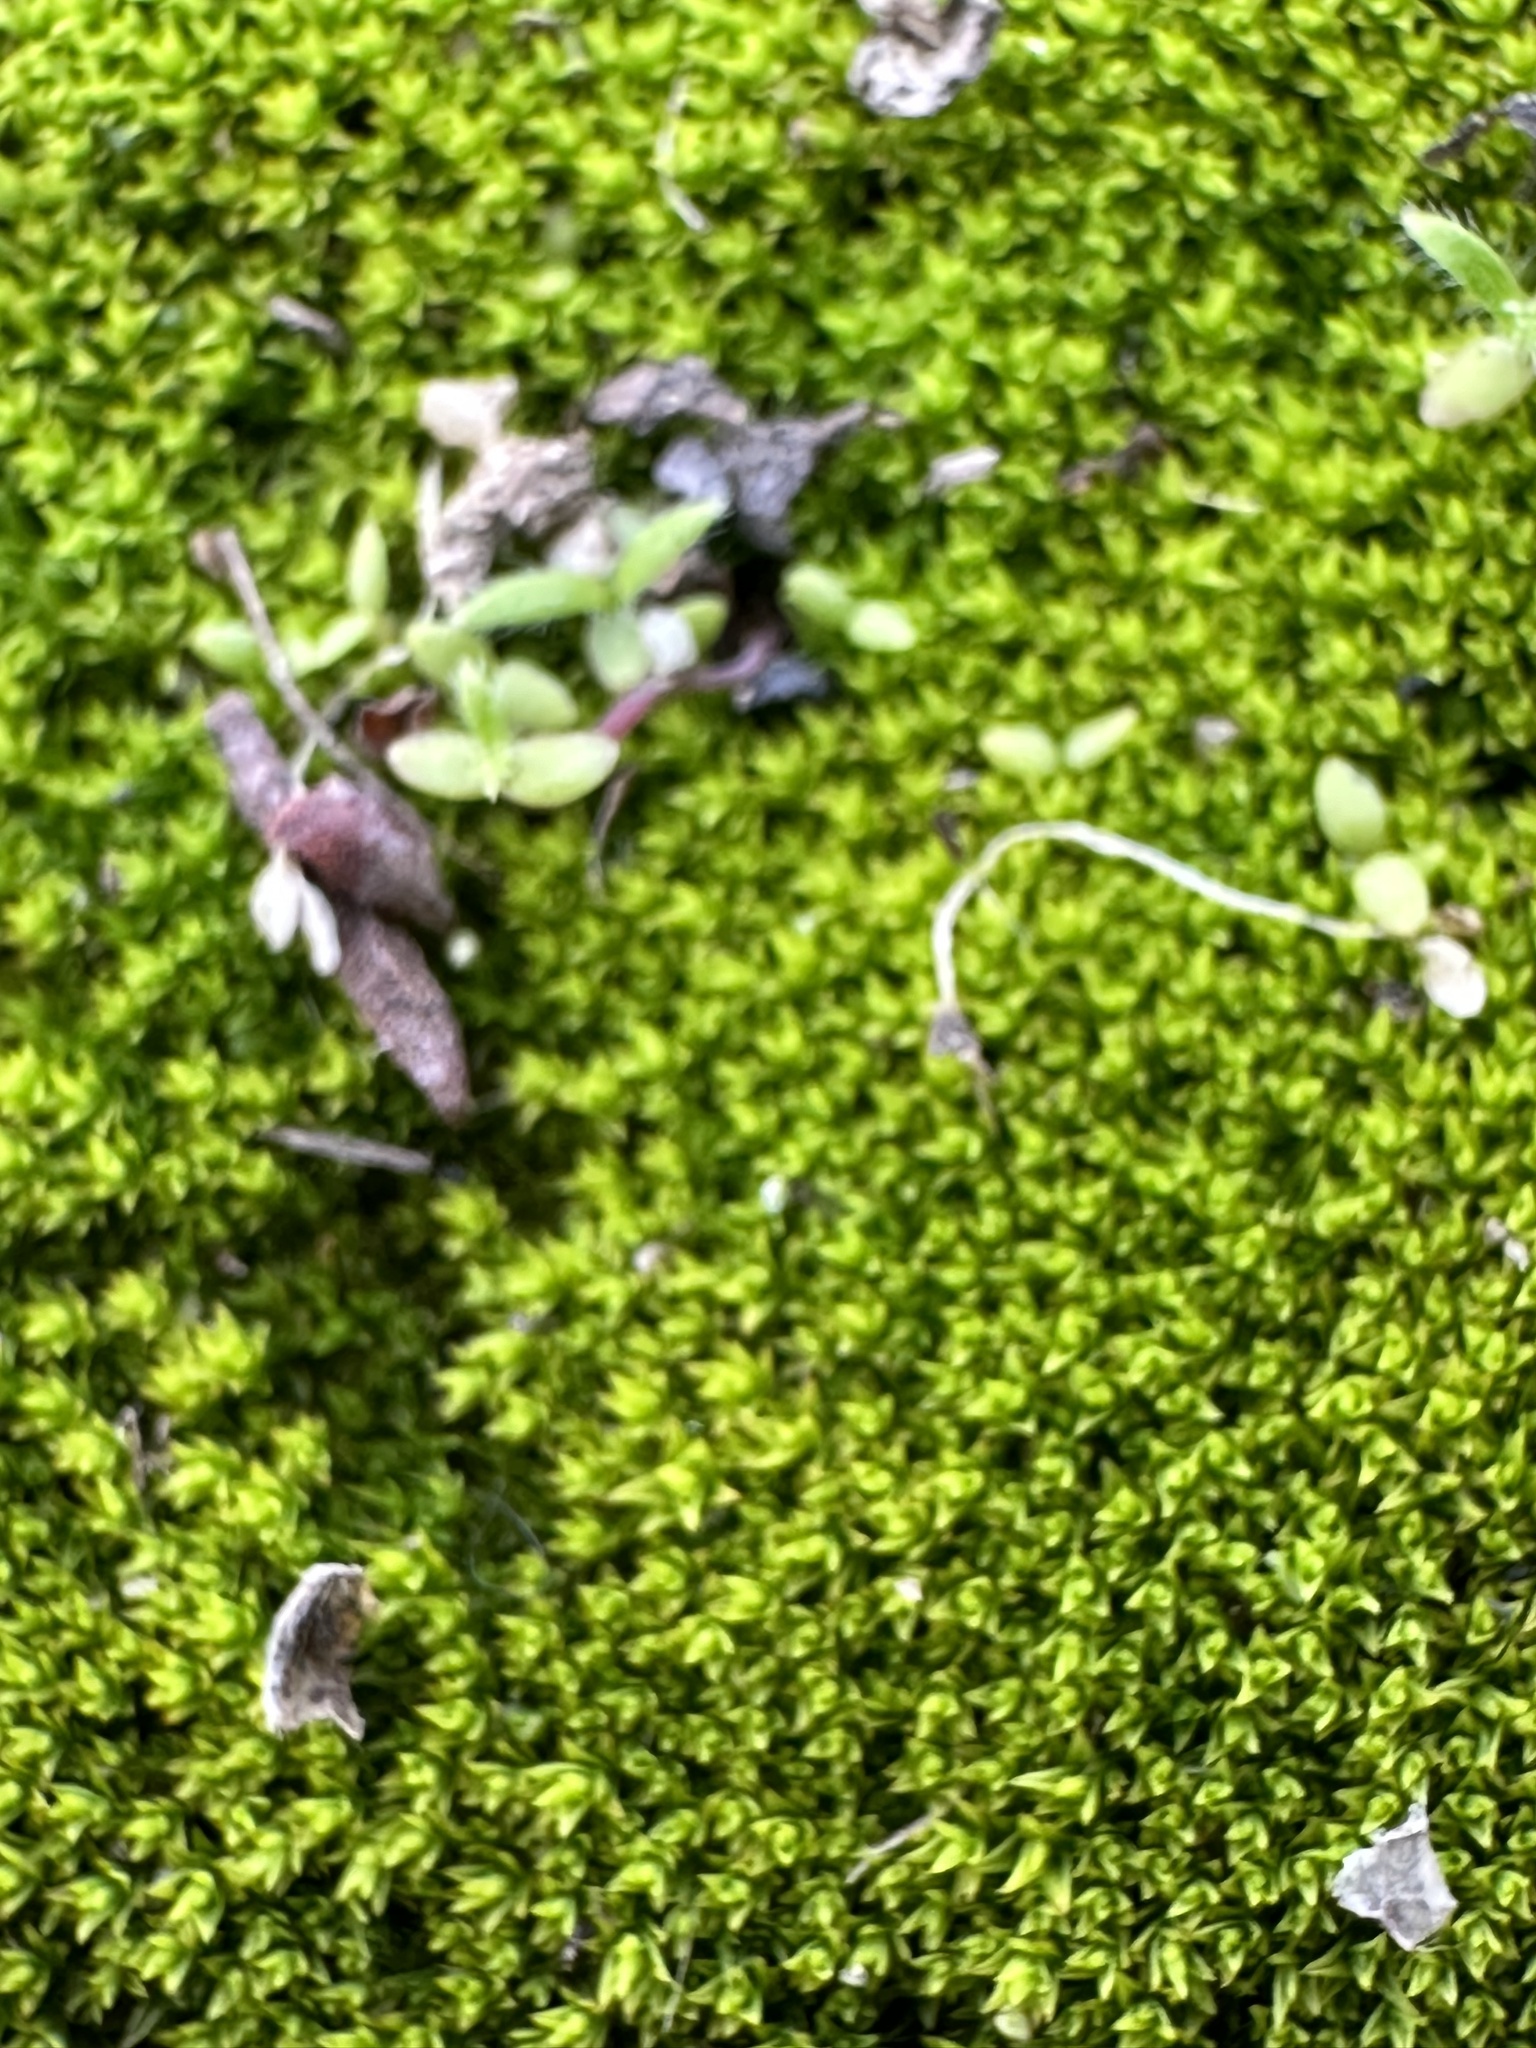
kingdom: Plantae
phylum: Bryophyta
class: Bryopsida
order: Grimmiales
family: Grimmiaceae
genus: Grimmia
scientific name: Grimmia laevigata
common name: Hoary grimmia
